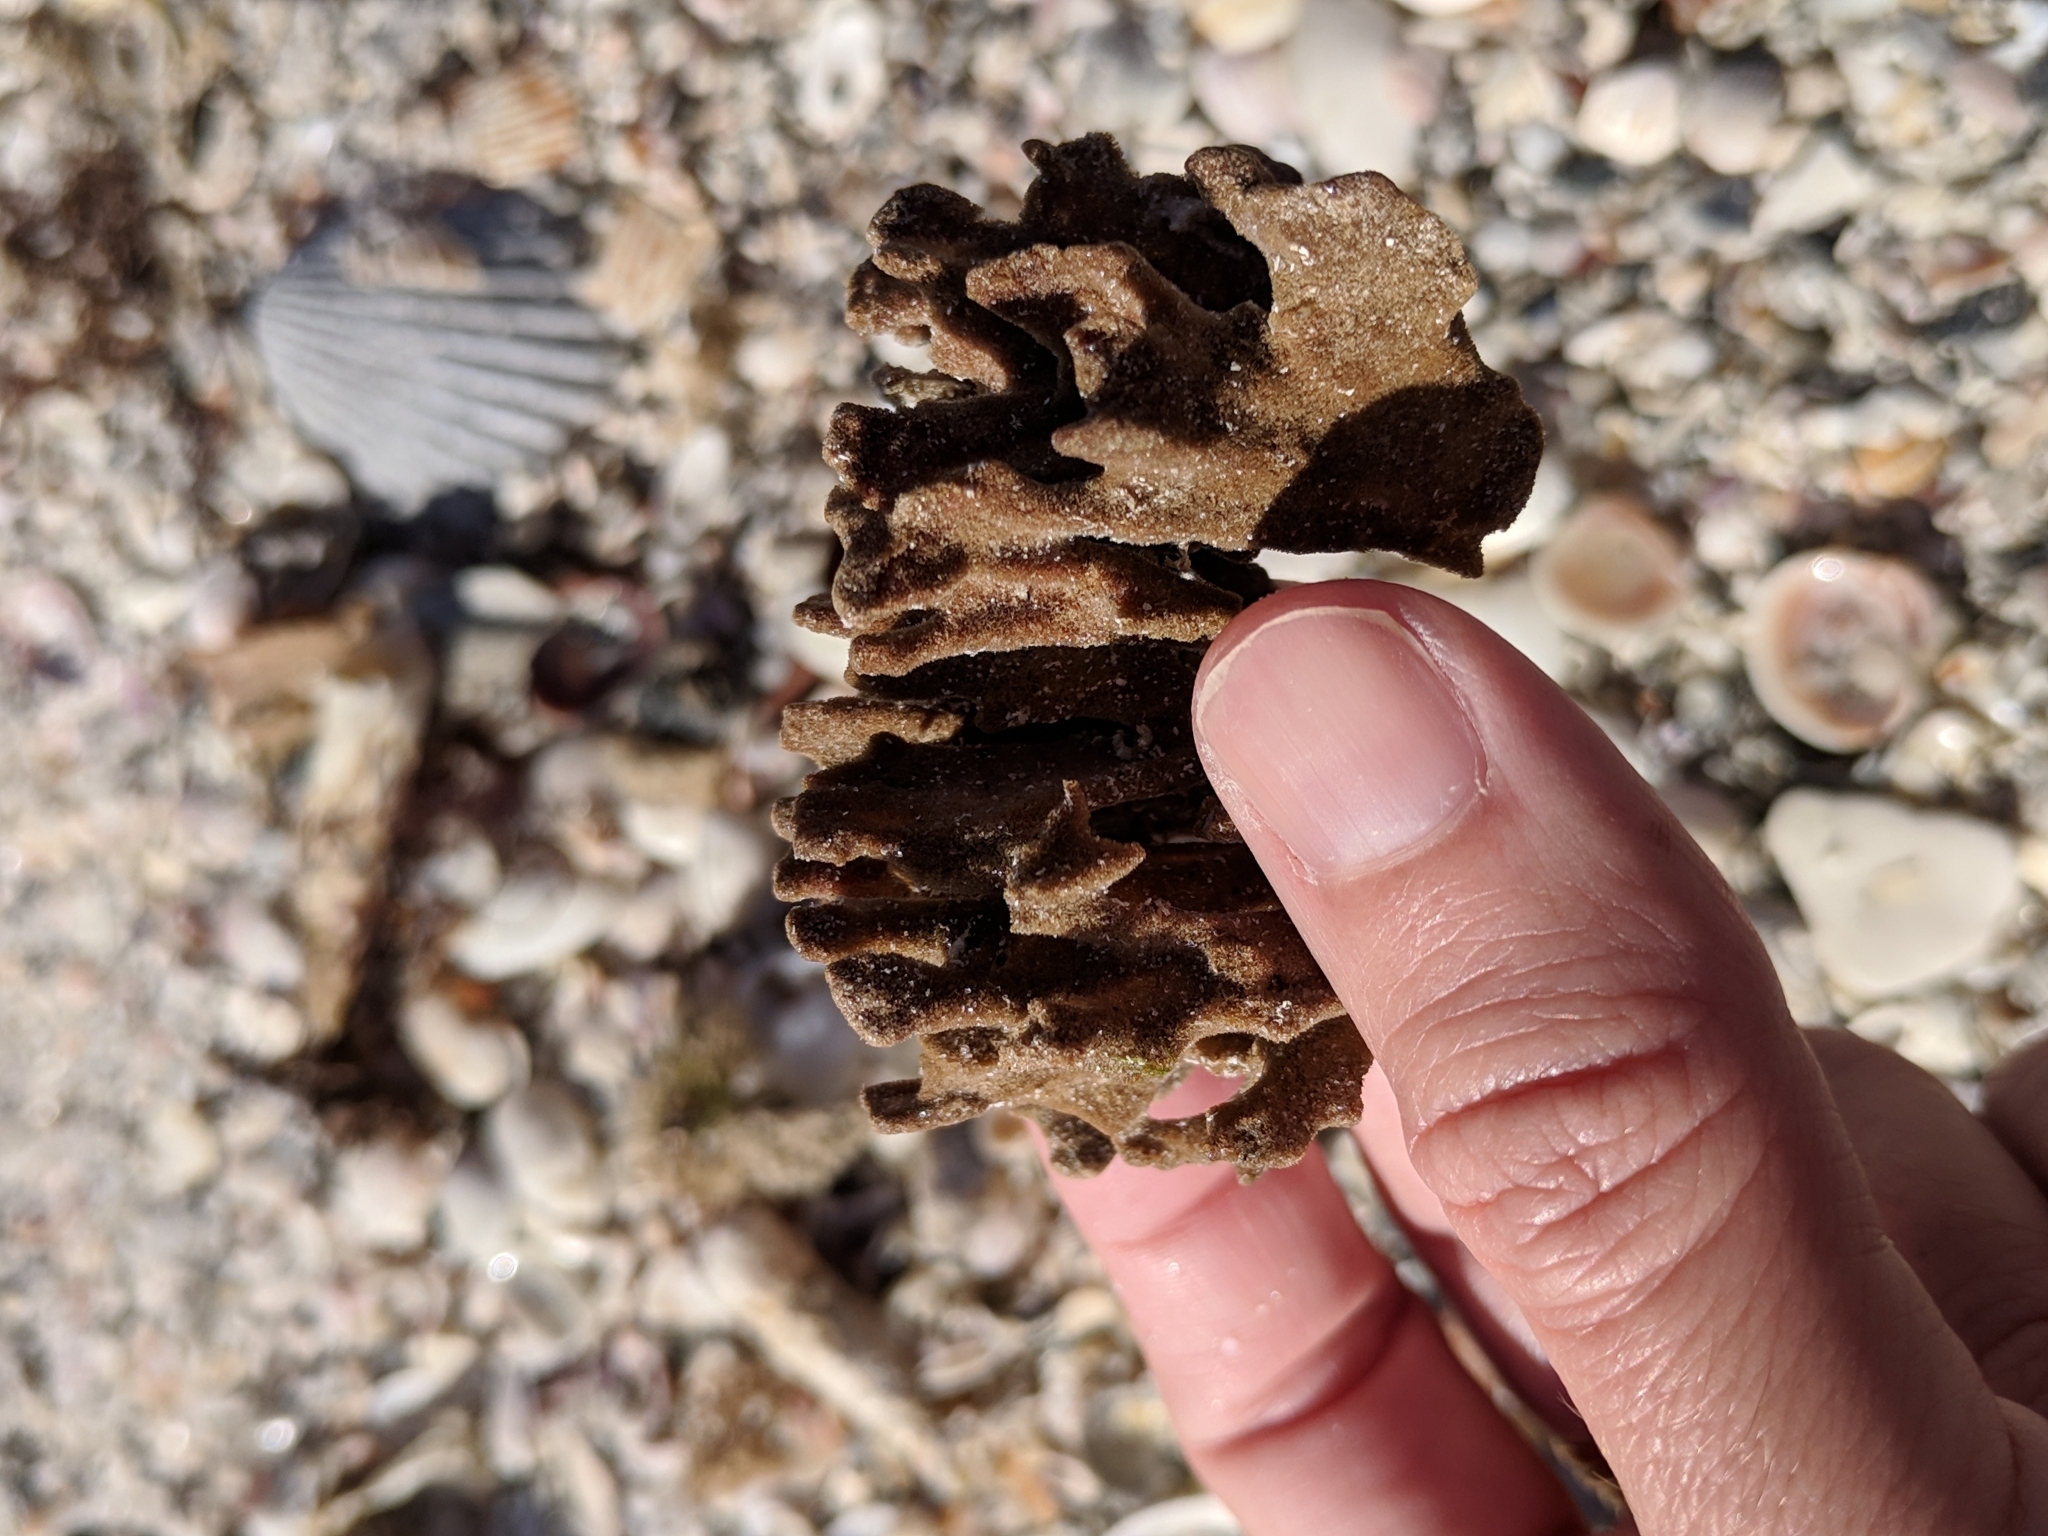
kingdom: Animalia
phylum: Porifera
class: Demospongiae
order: Poecilosclerida
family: Microcionidae
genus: Clathria
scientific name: Clathria foliacea
